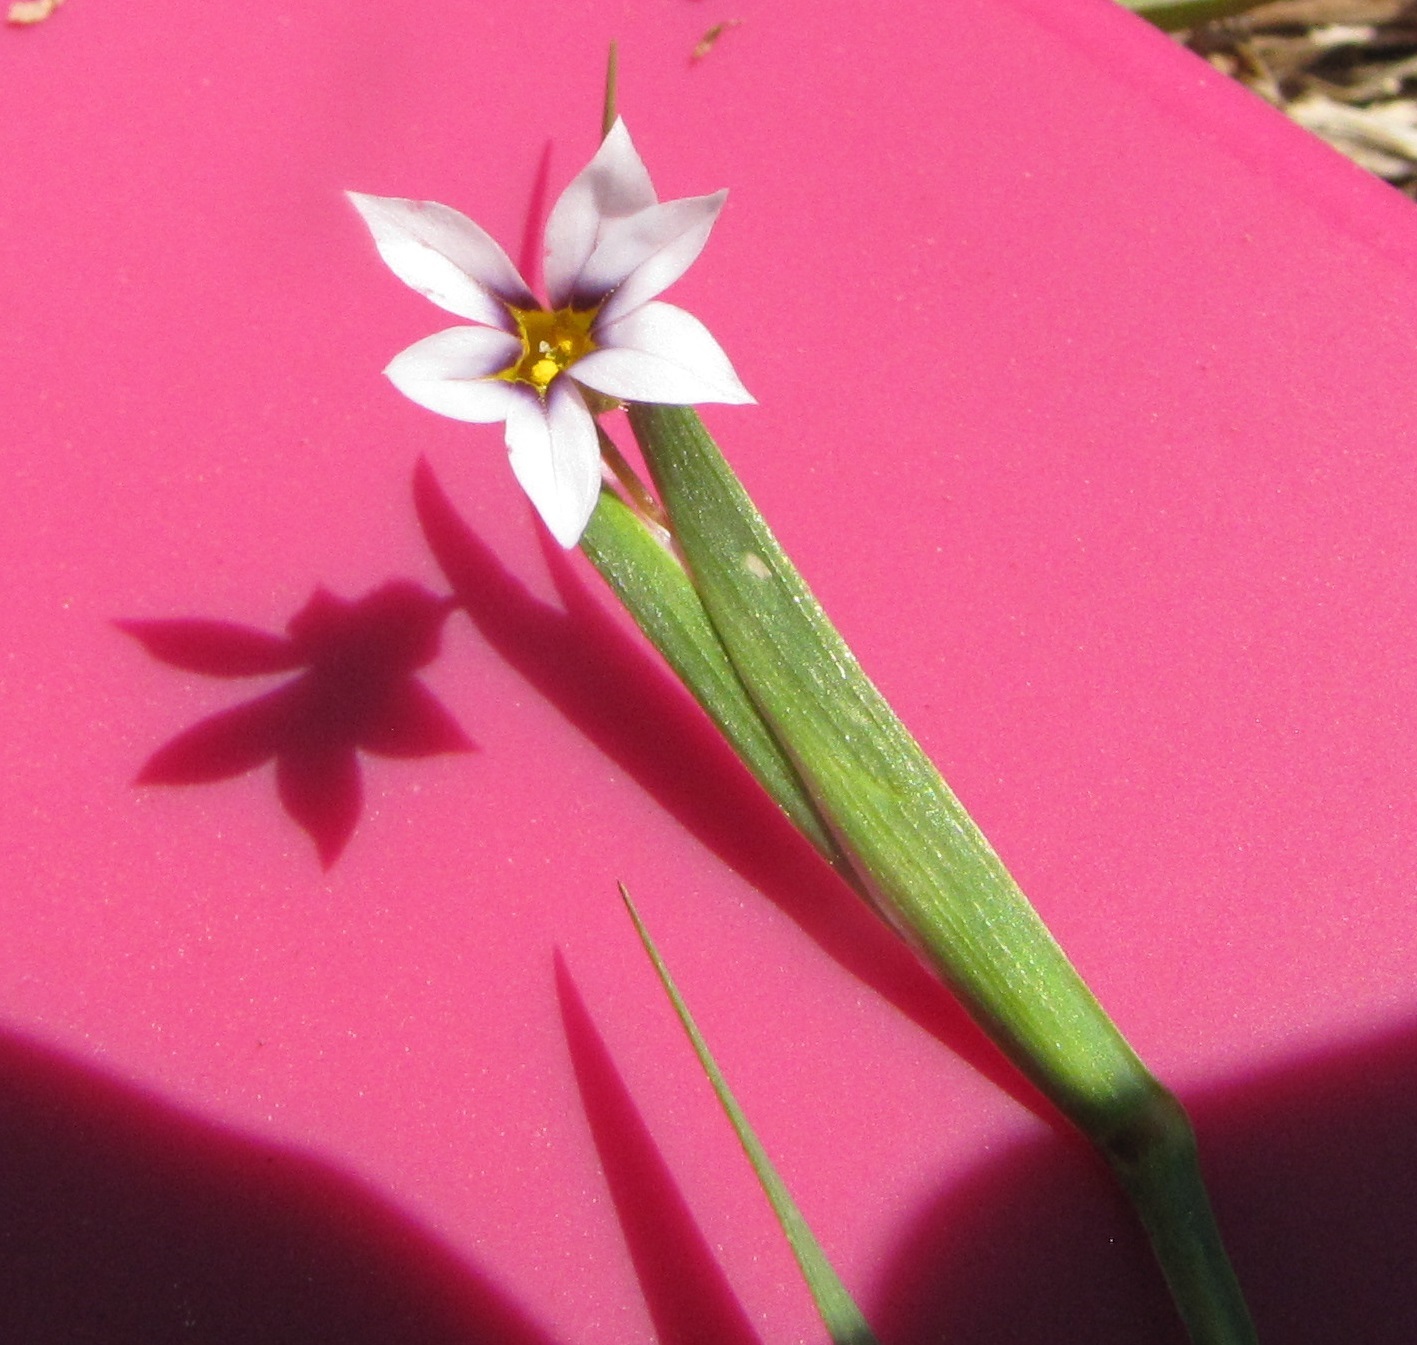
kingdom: Plantae
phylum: Tracheophyta
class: Liliopsida
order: Asparagales
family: Iridaceae
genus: Sisyrinchium
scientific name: Sisyrinchium micranthum
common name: Bermuda pigroot
